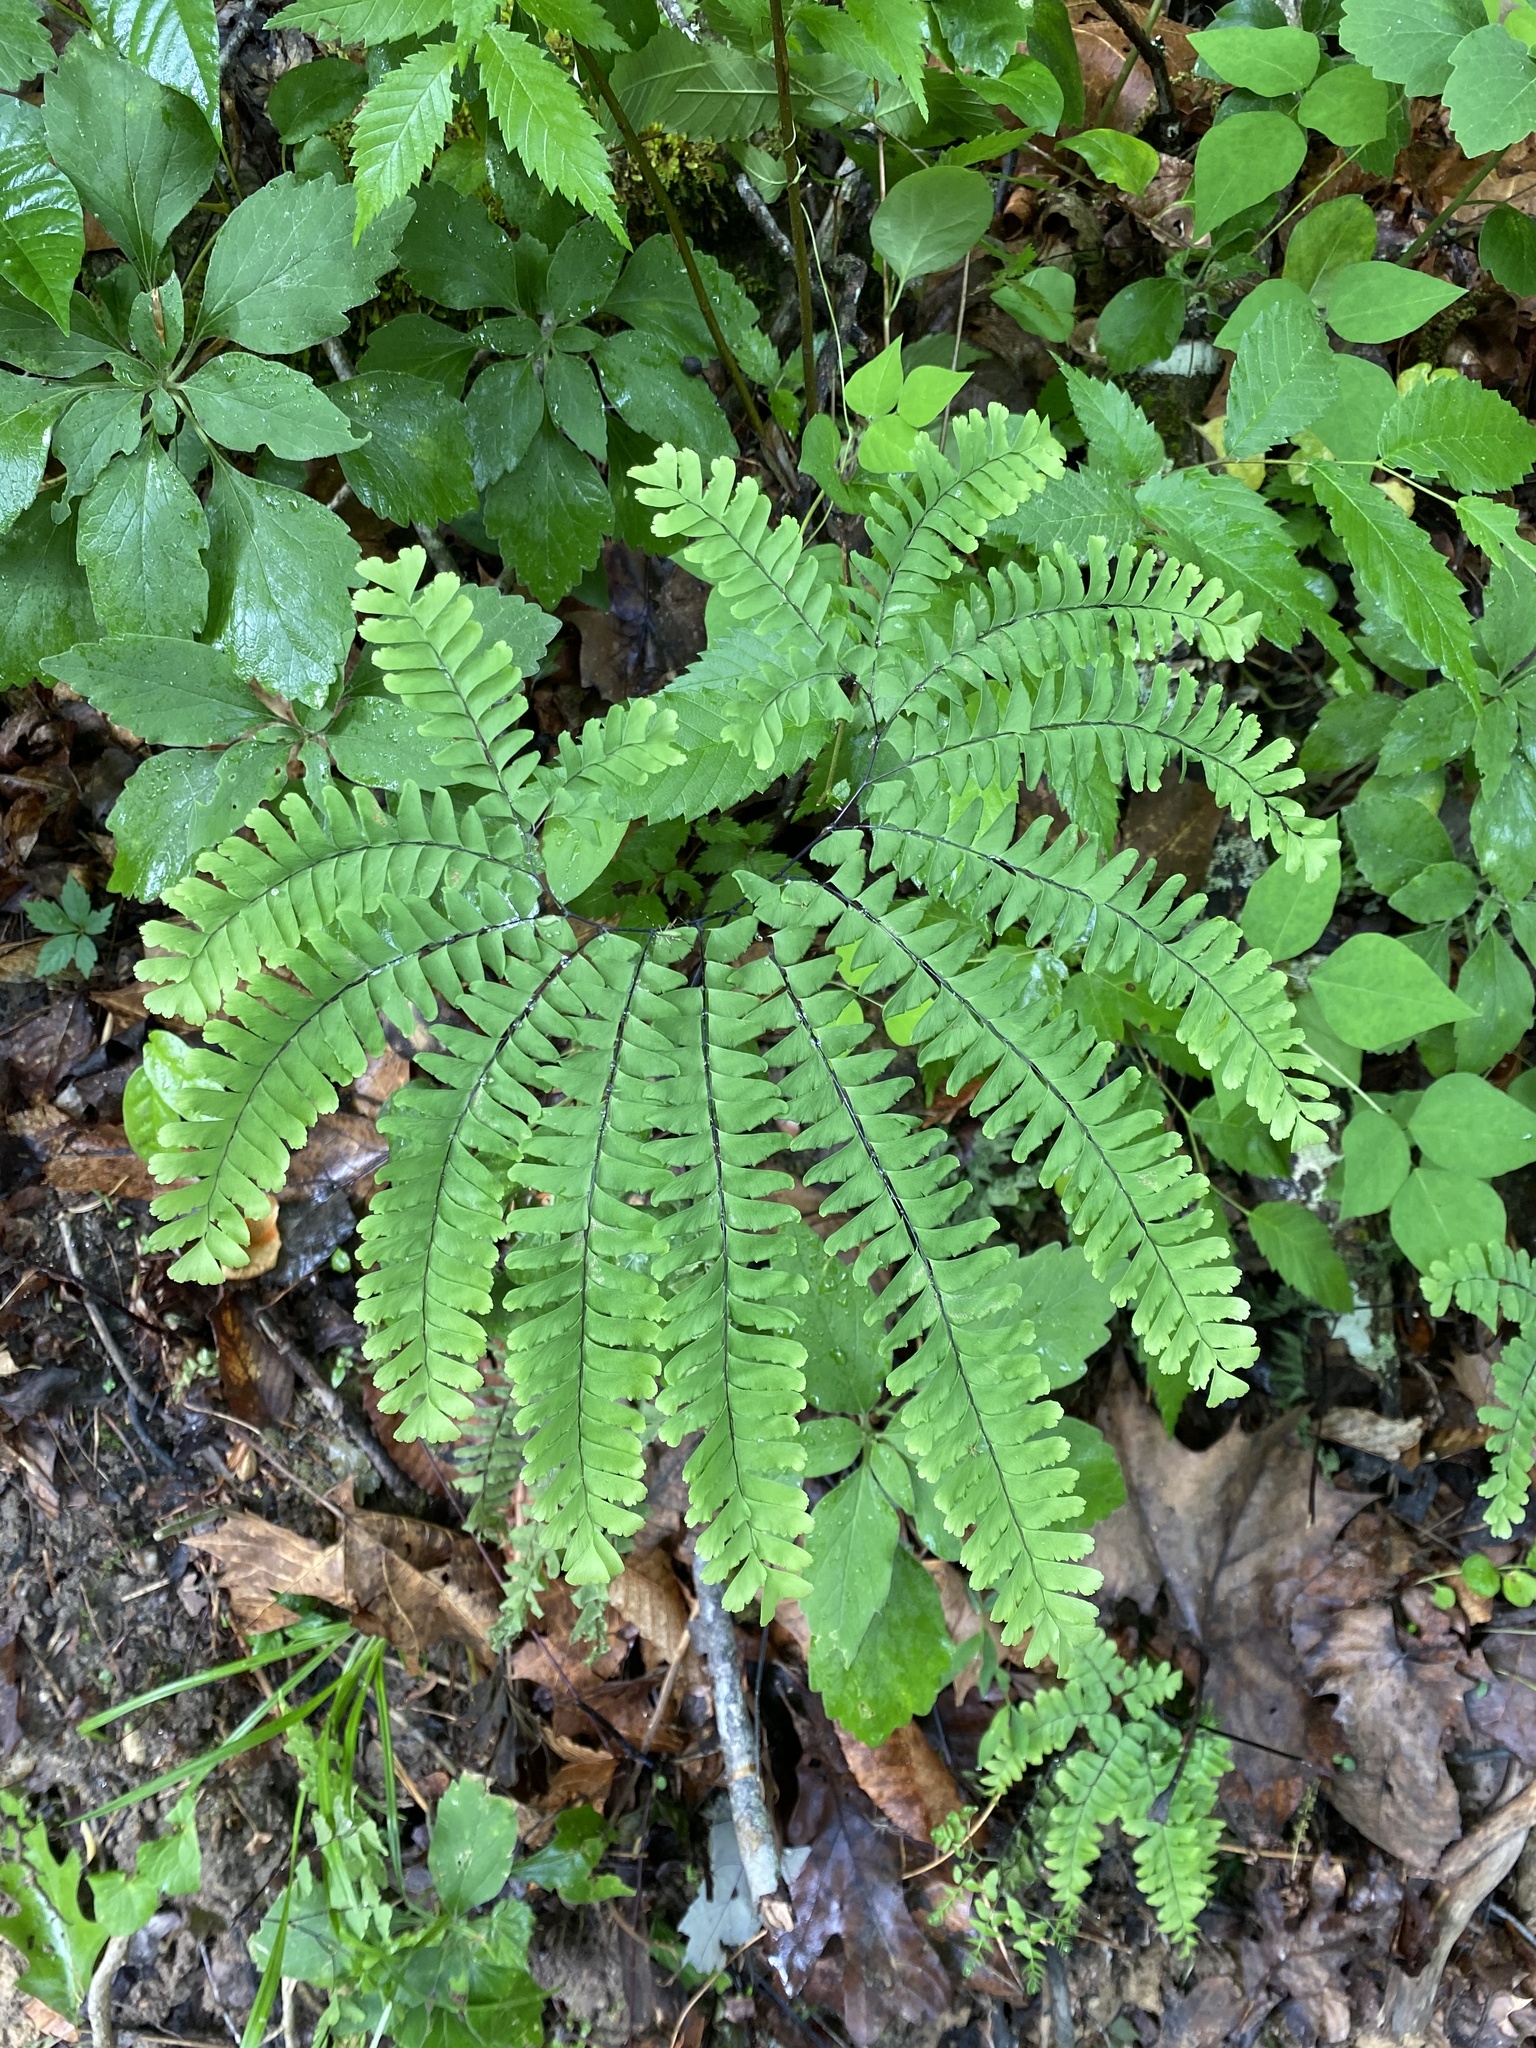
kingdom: Plantae
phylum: Tracheophyta
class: Polypodiopsida
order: Polypodiales
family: Pteridaceae
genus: Adiantum
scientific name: Adiantum pedatum
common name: Five-finger fern
